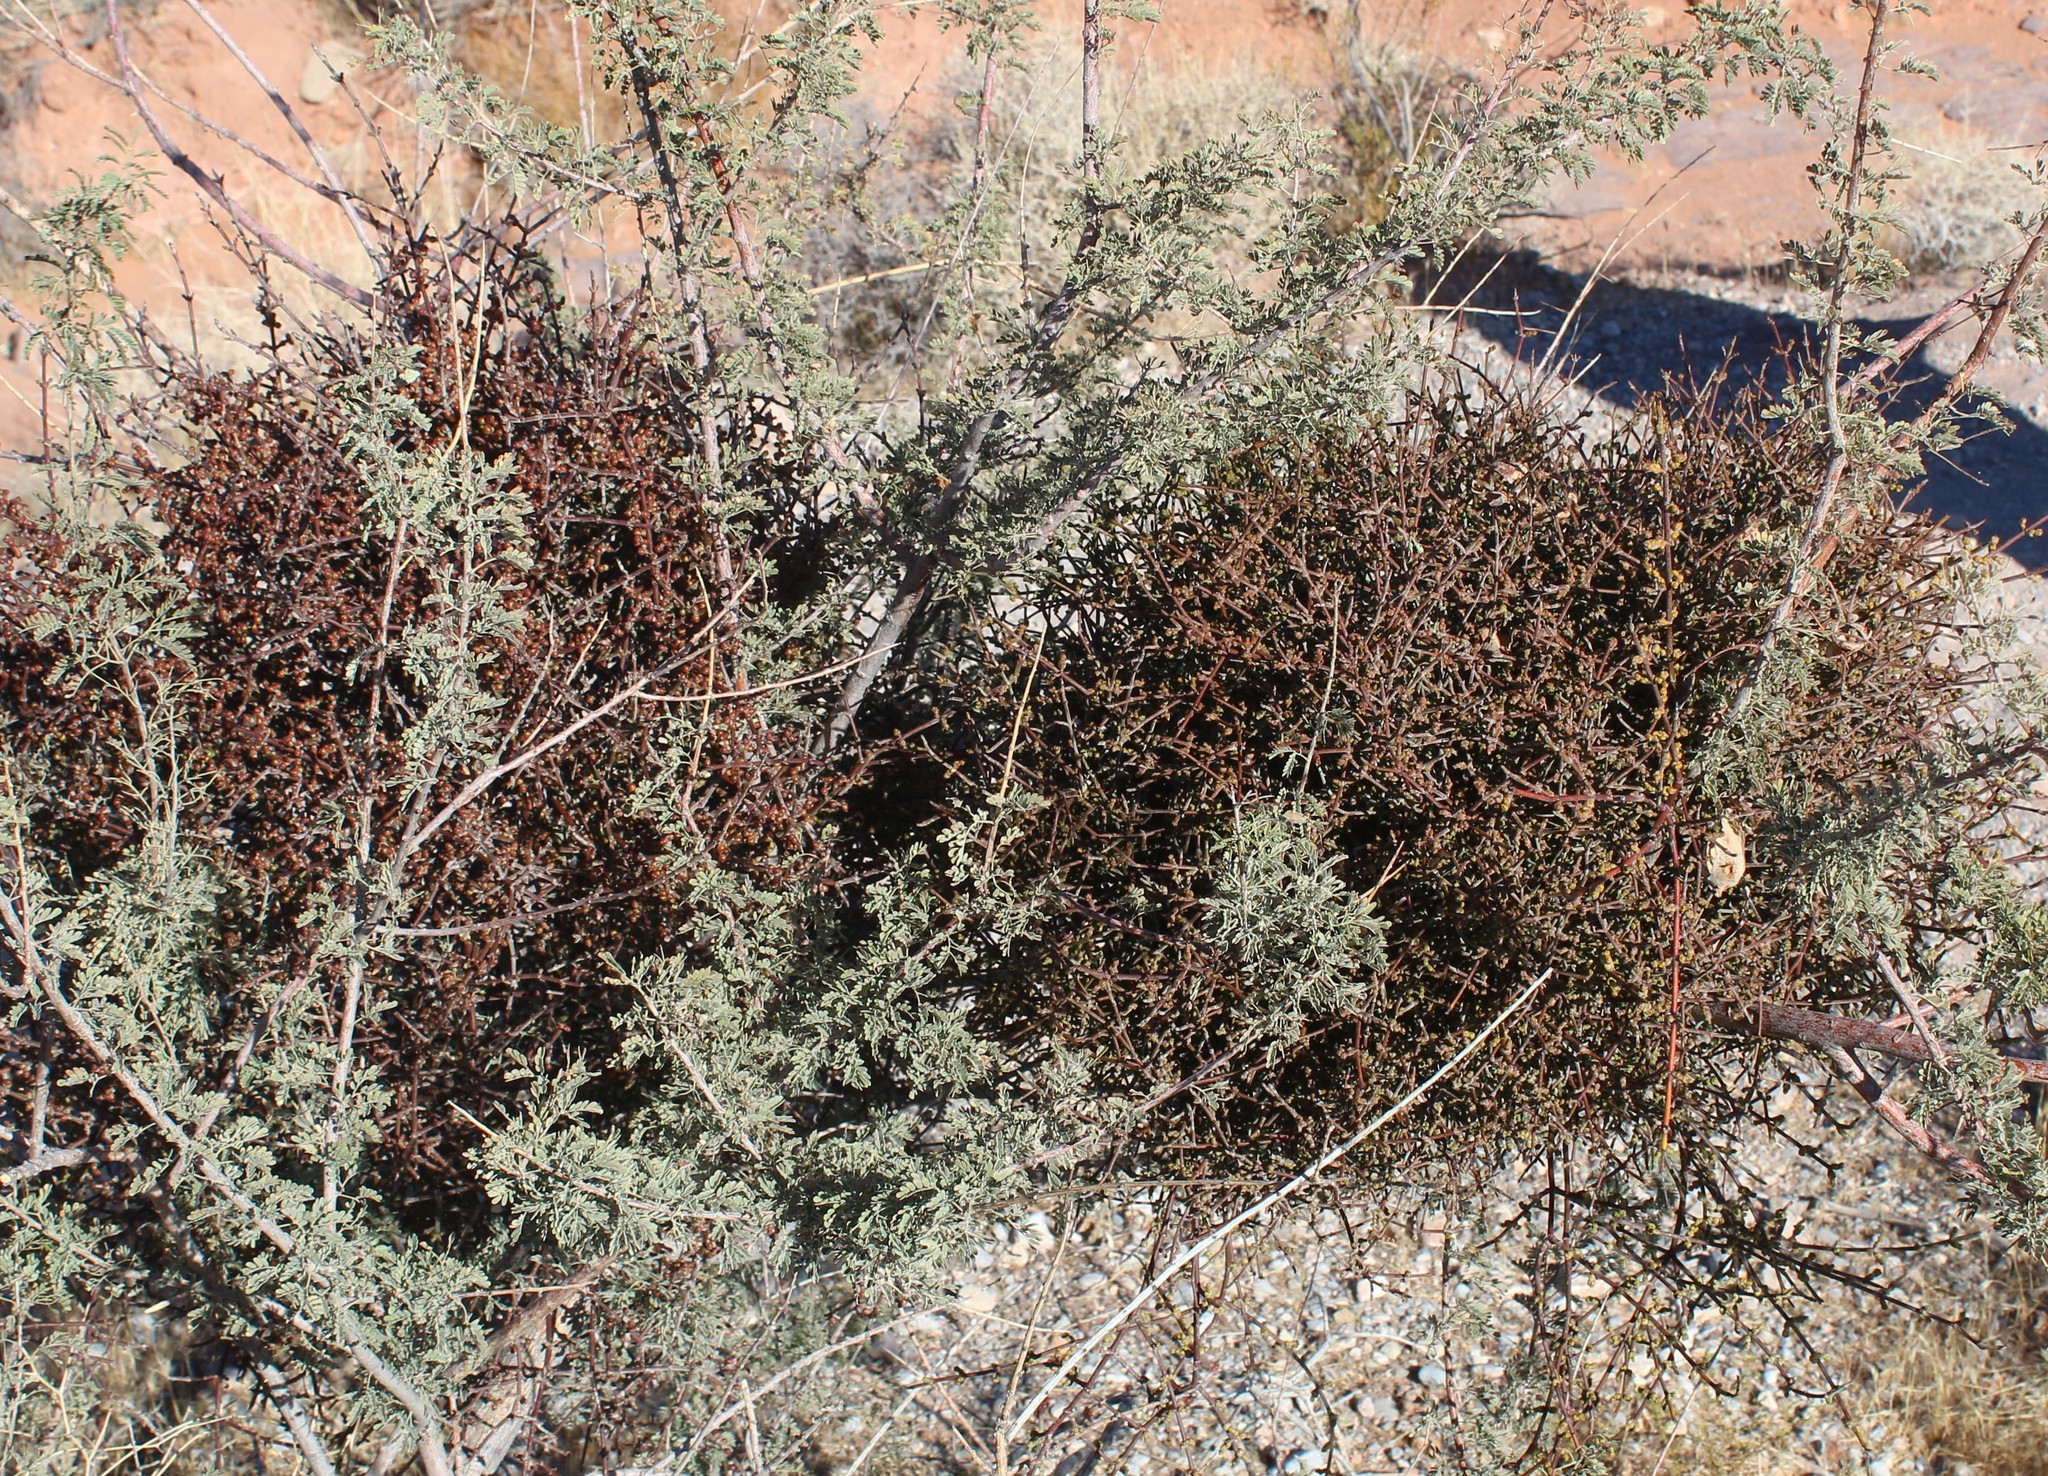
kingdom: Plantae
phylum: Tracheophyta
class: Magnoliopsida
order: Santalales
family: Viscaceae
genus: Phoradendron
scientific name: Phoradendron californicum
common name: Acacia mistletoe
